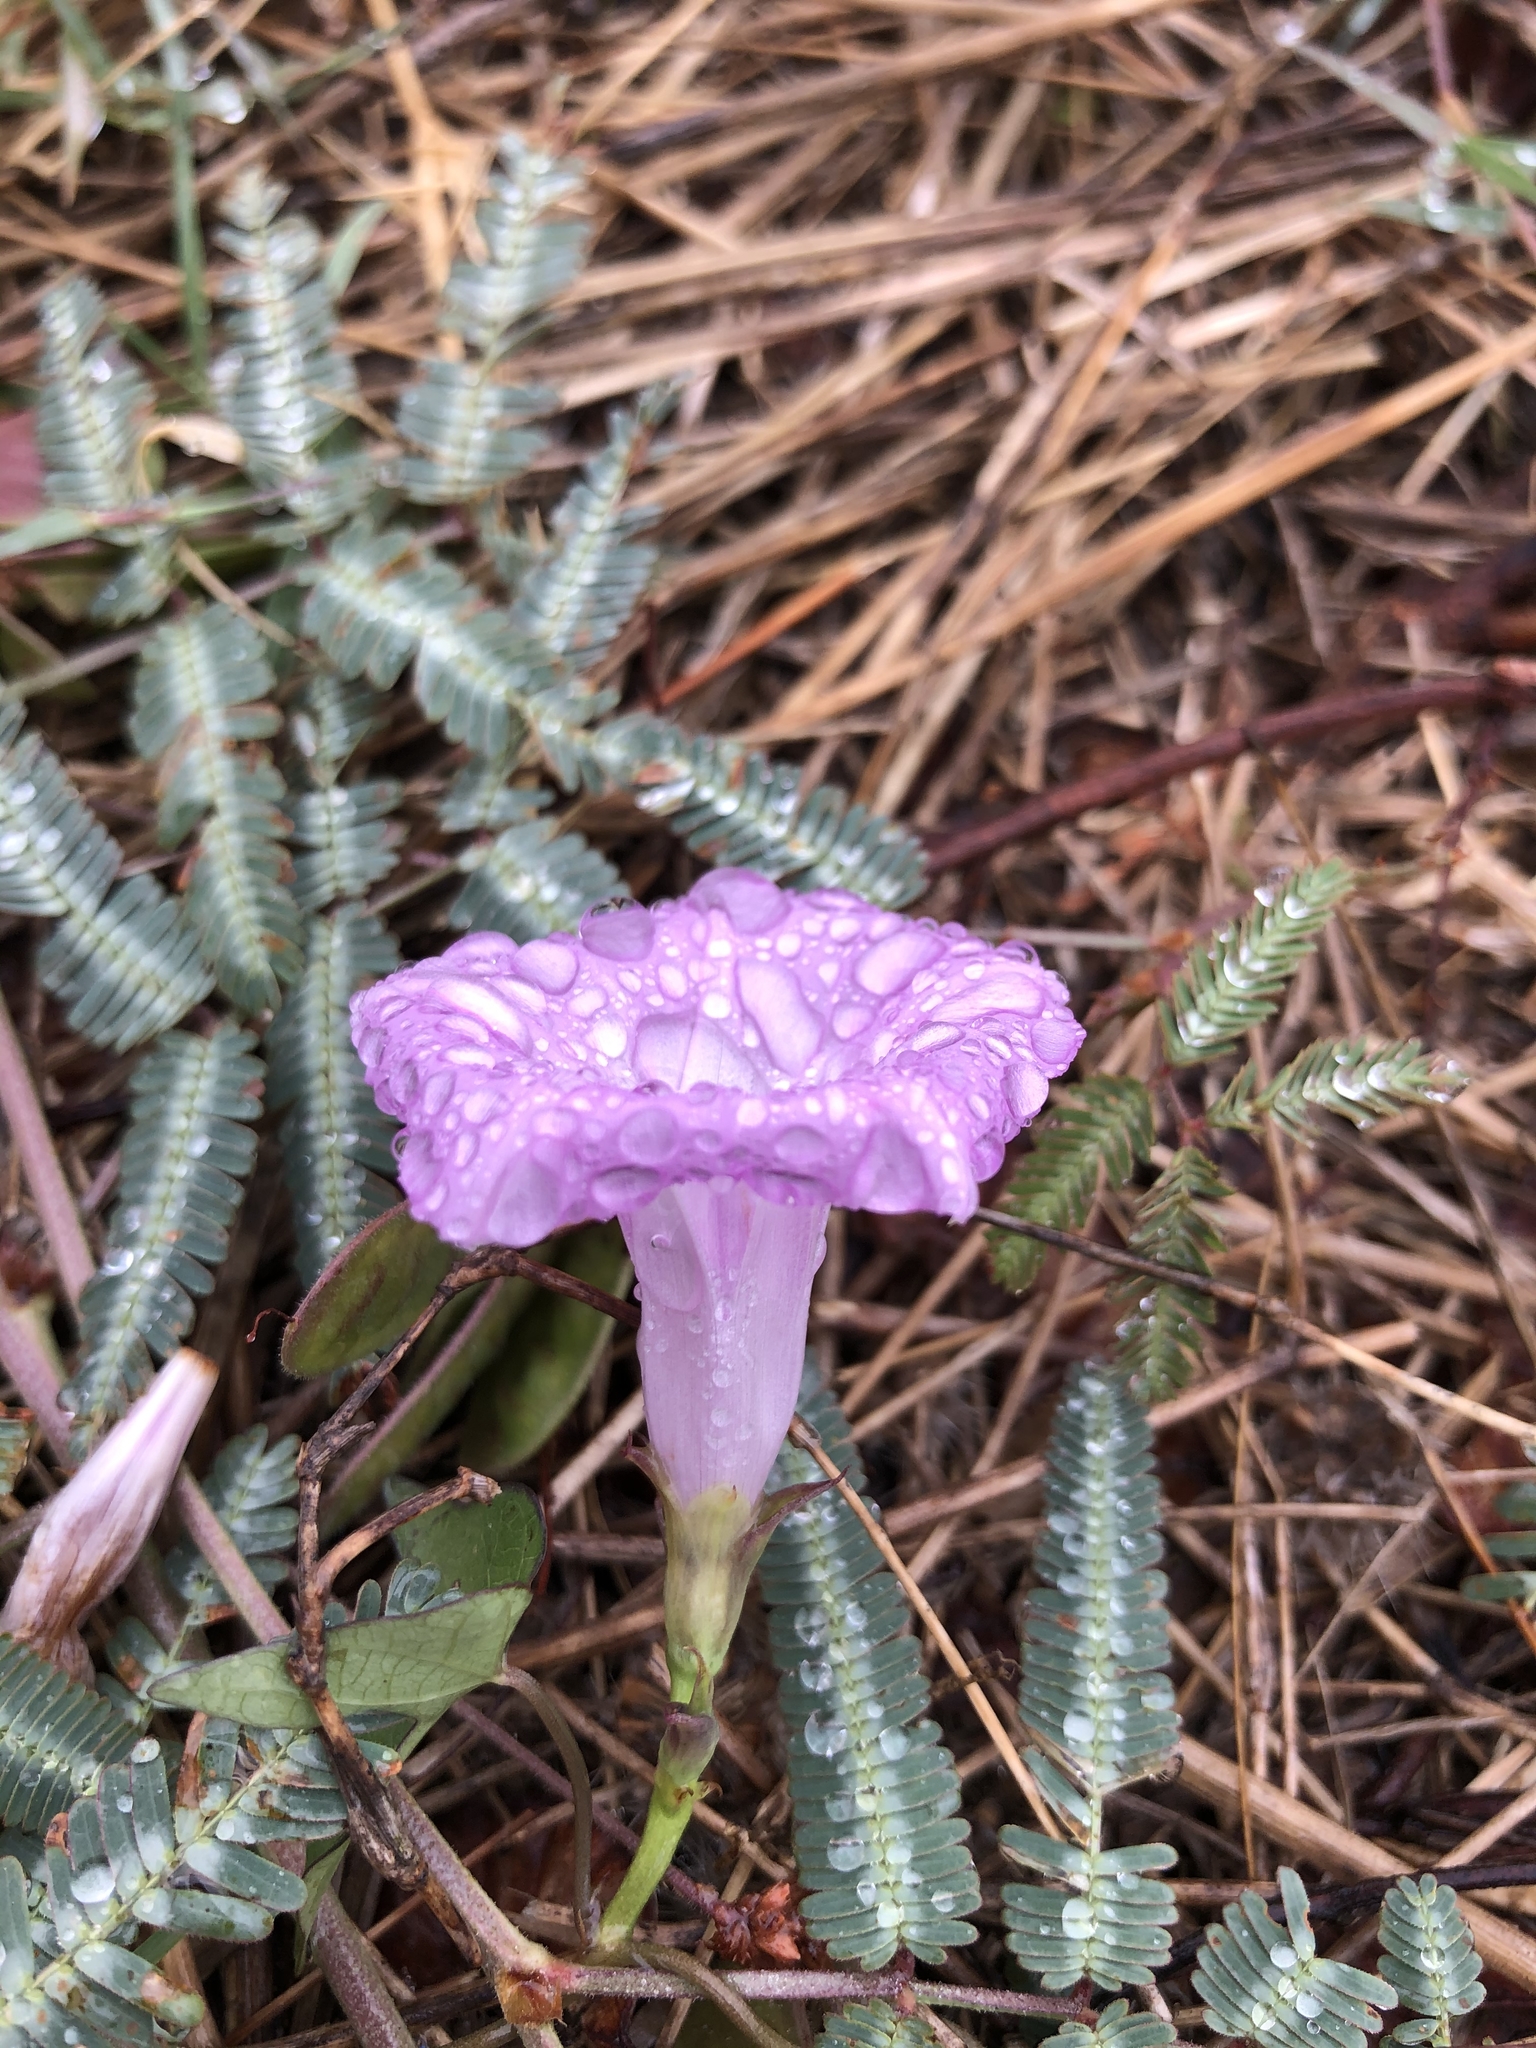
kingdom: Plantae
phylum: Tracheophyta
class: Magnoliopsida
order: Solanales
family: Convolvulaceae
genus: Ipomoea
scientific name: Ipomoea cordatotriloba
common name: Cotton morning glory
